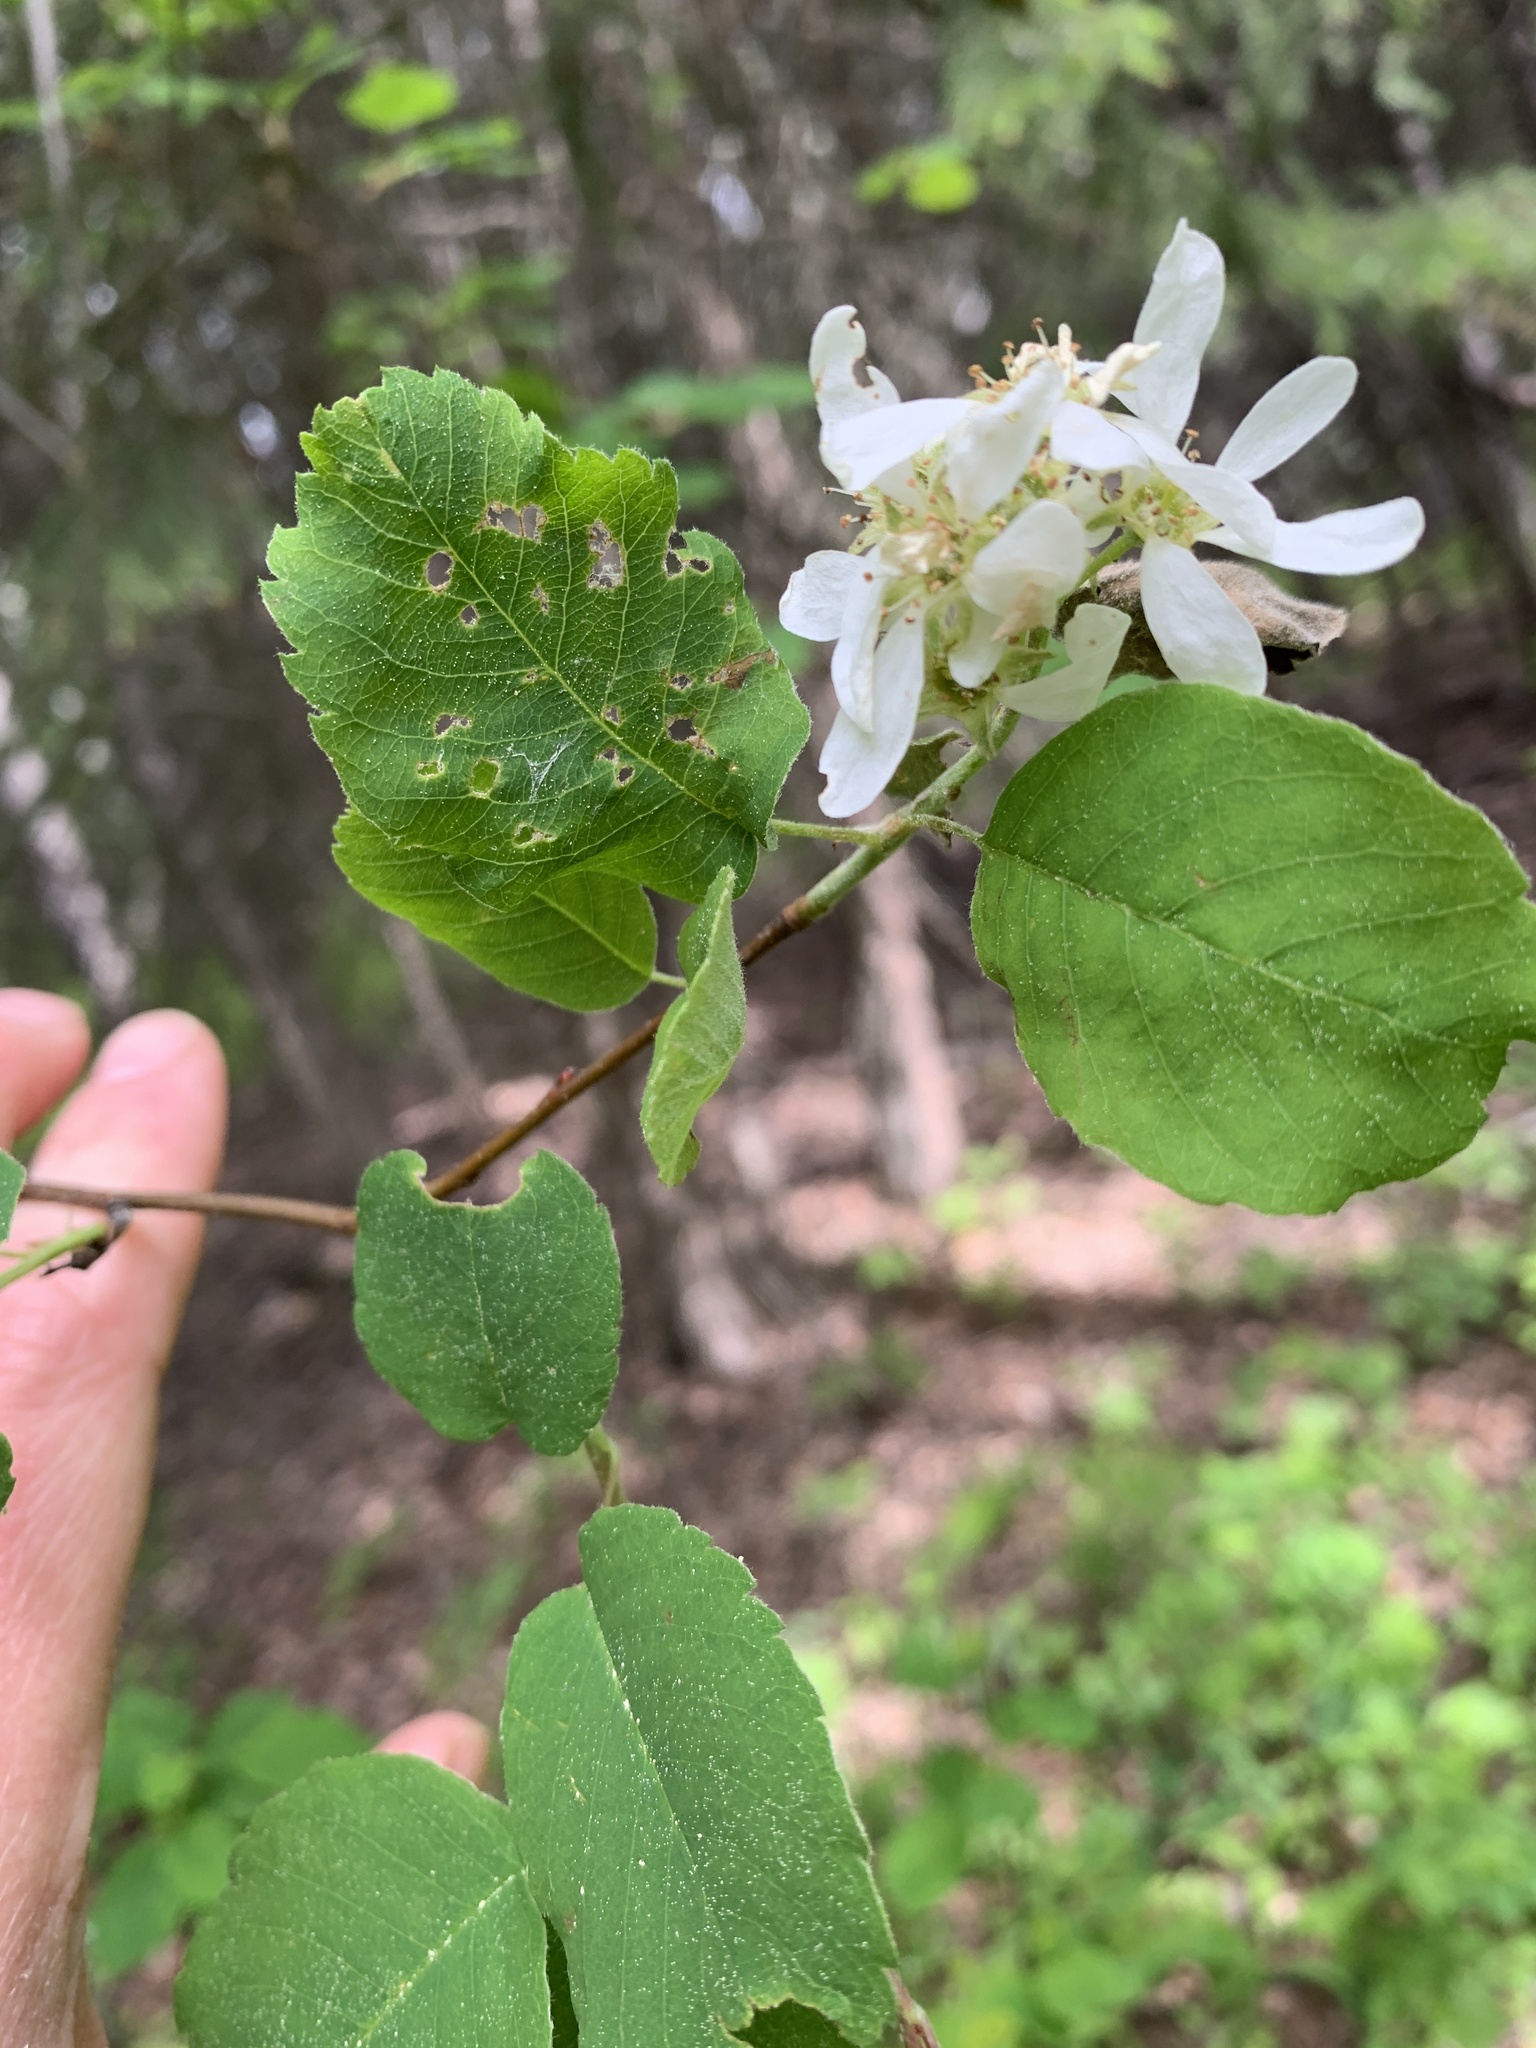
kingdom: Plantae
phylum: Tracheophyta
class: Magnoliopsida
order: Rosales
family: Rosaceae
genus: Amelanchier
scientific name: Amelanchier alnifolia
